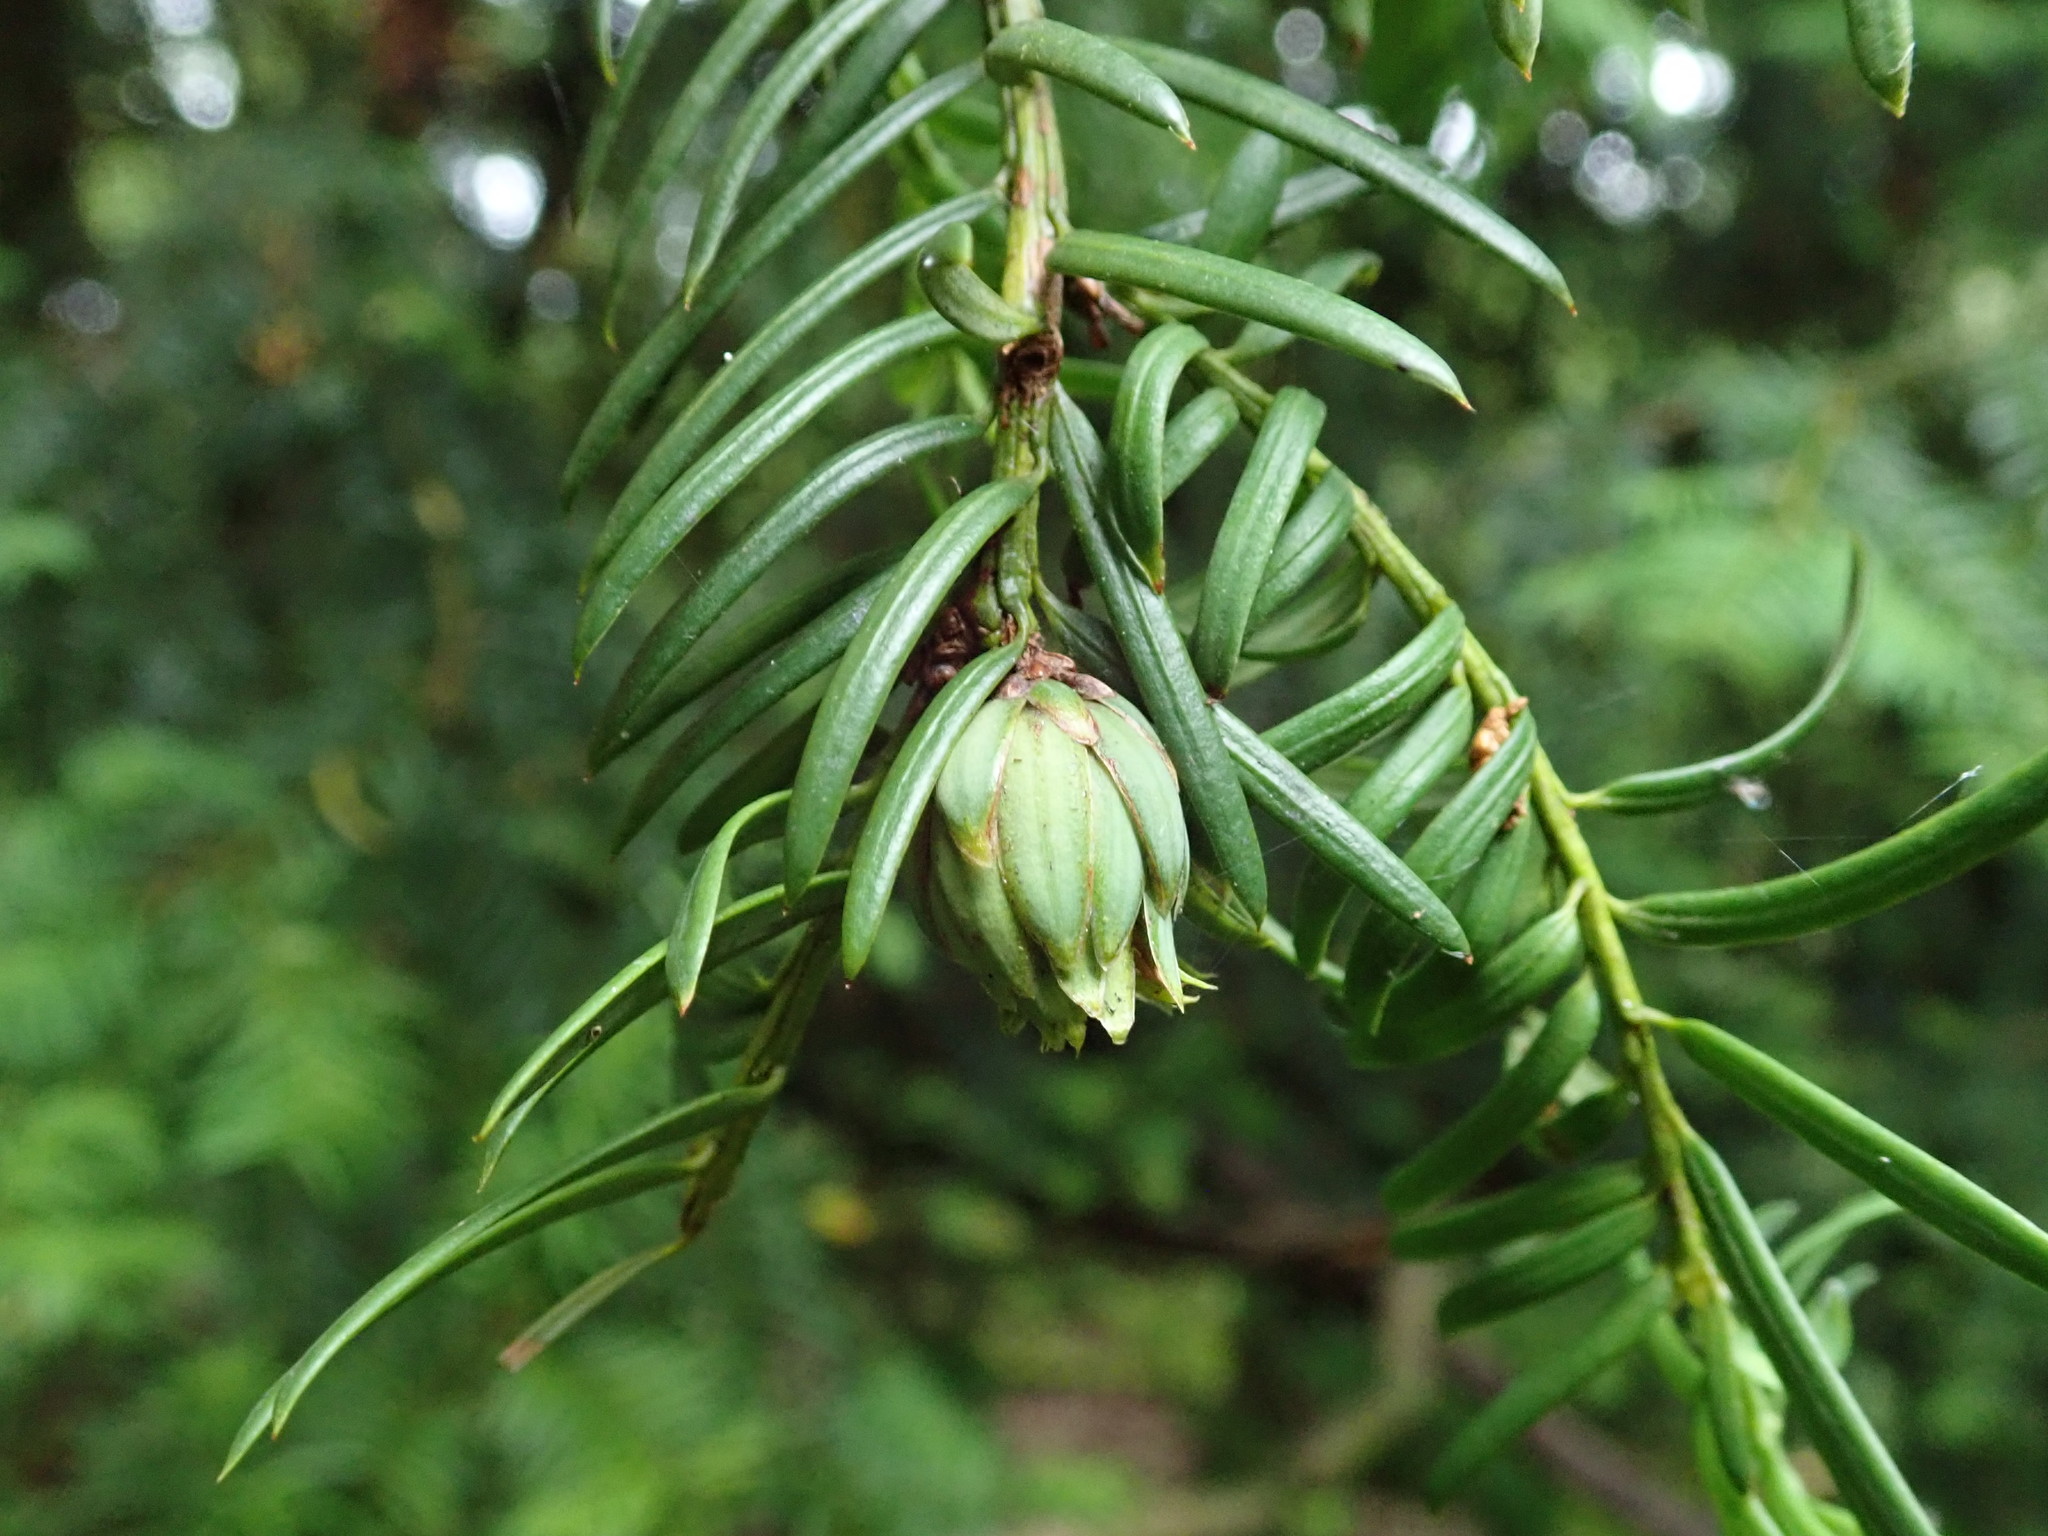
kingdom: Animalia
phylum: Arthropoda
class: Insecta
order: Diptera
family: Cecidomyiidae
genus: Taxomyia
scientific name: Taxomyia taxi
